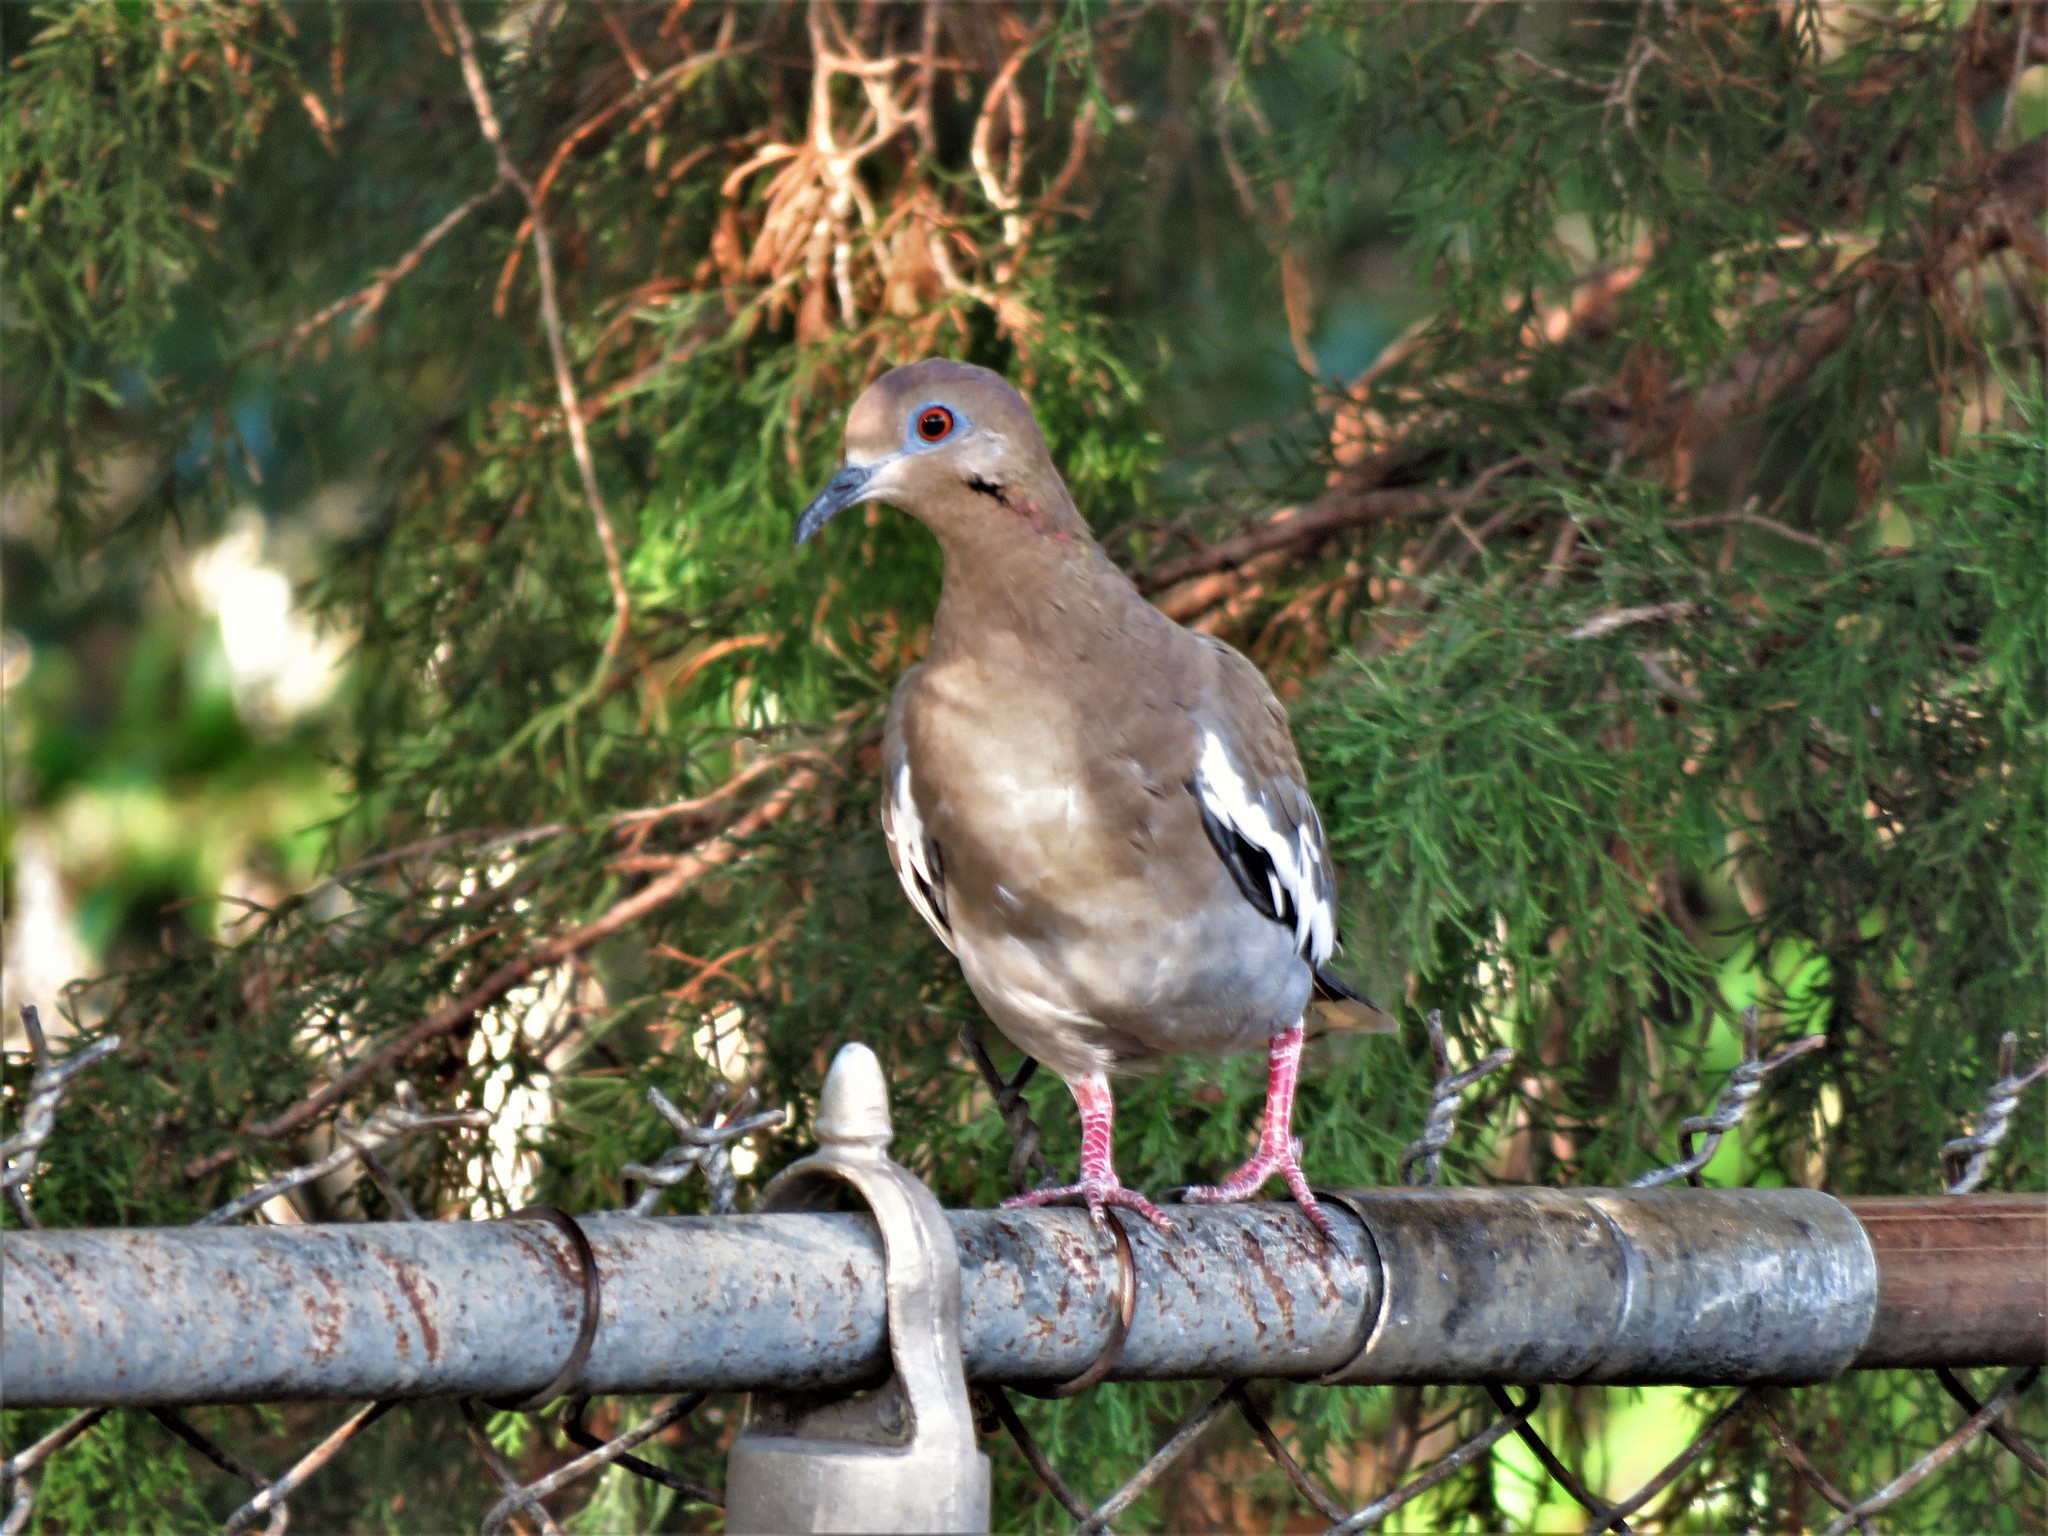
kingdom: Animalia
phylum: Chordata
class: Aves
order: Columbiformes
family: Columbidae
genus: Zenaida
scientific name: Zenaida asiatica
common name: White-winged dove
